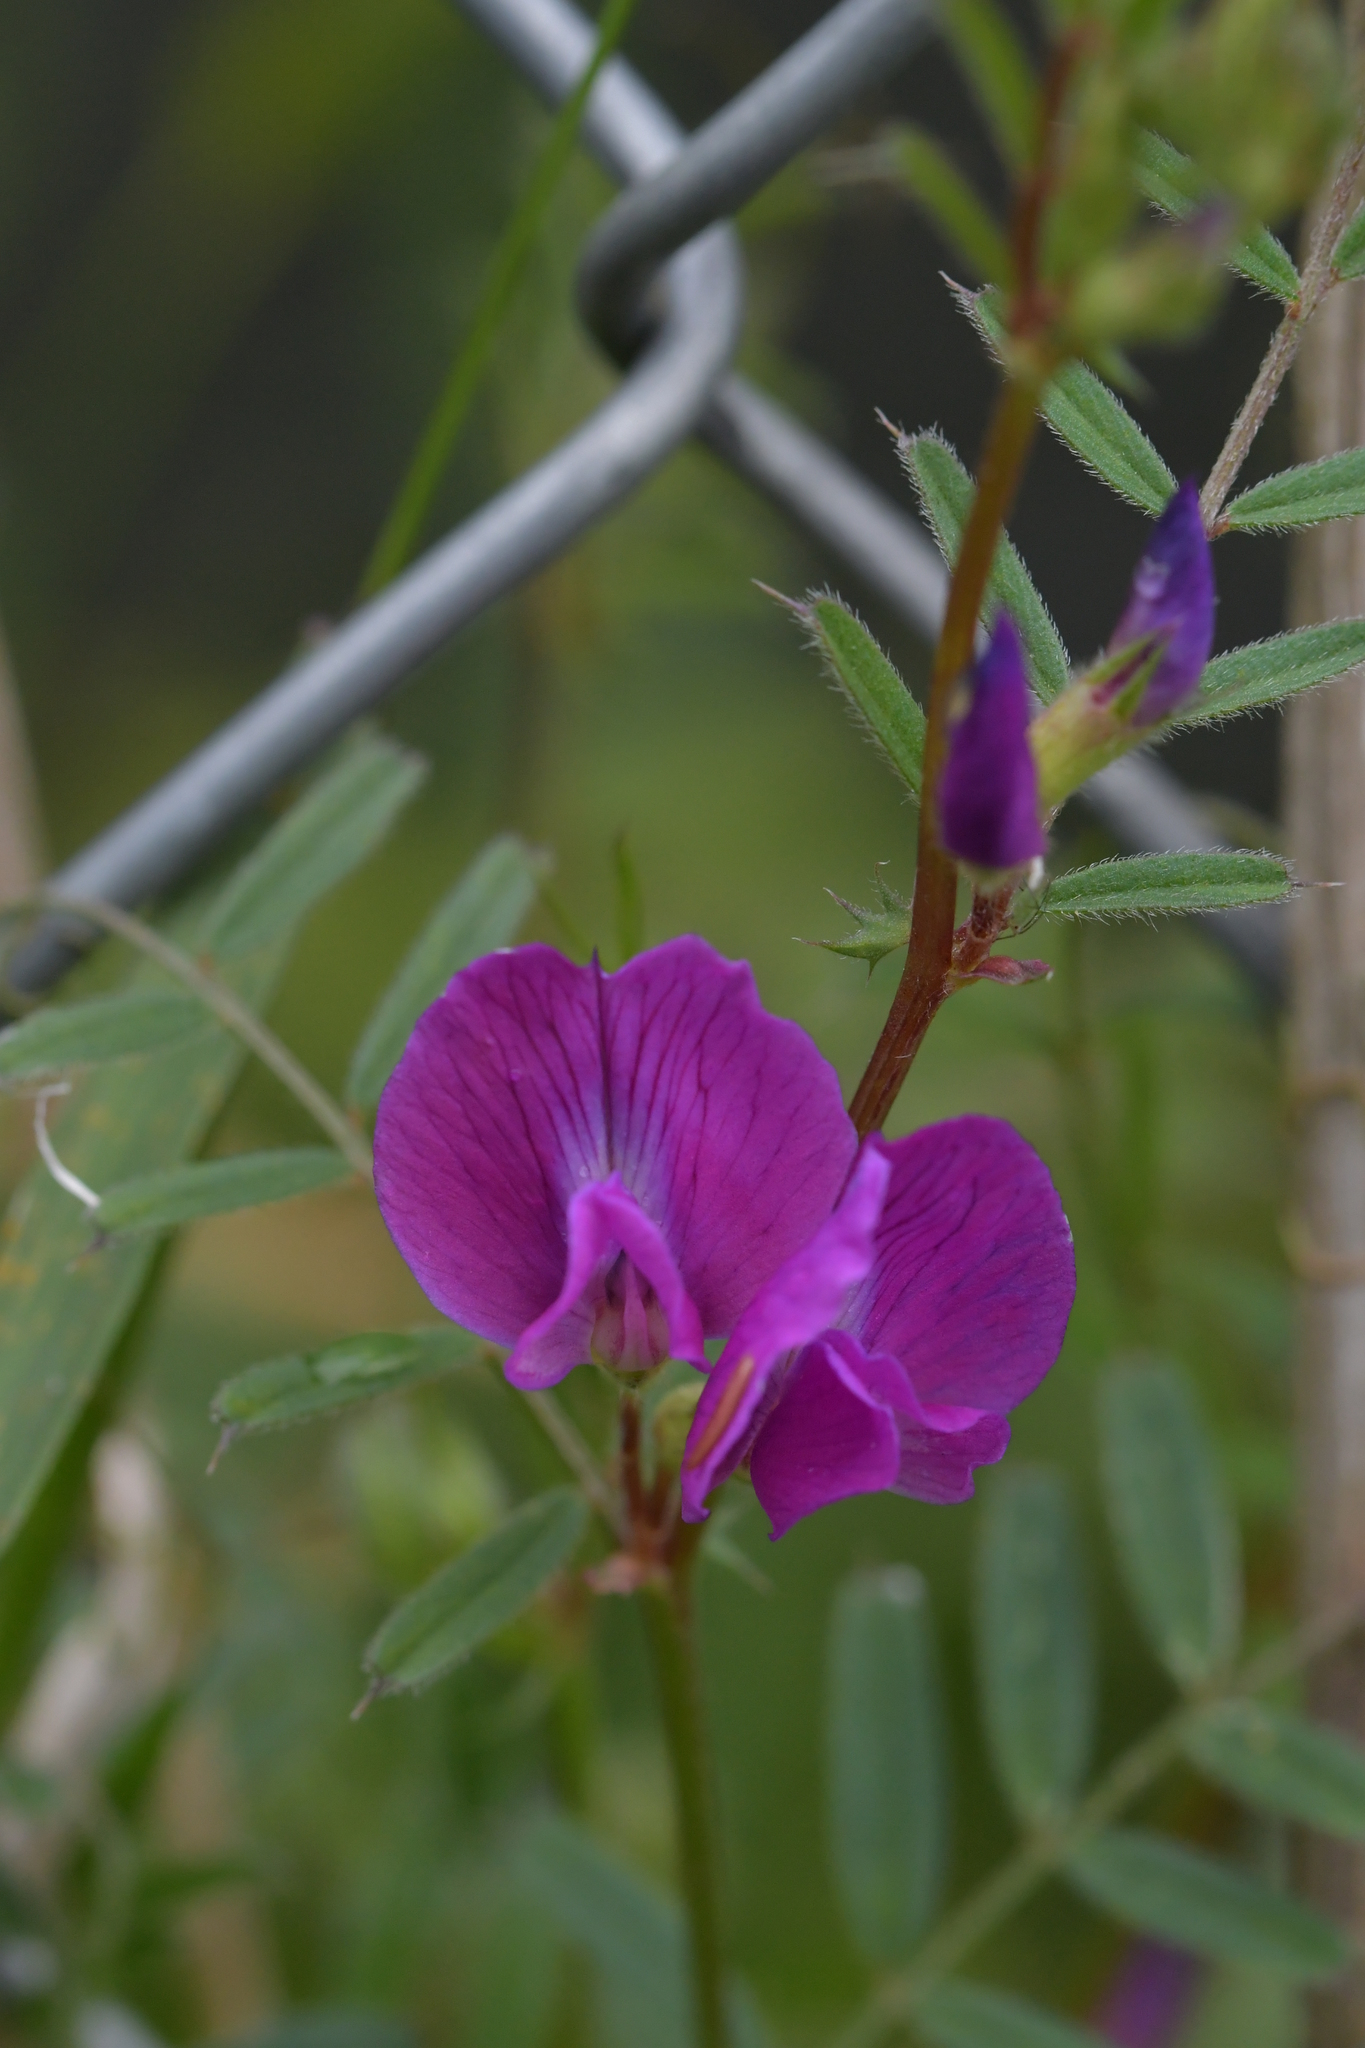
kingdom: Plantae
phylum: Tracheophyta
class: Magnoliopsida
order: Fabales
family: Fabaceae
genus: Vicia
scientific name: Vicia sativa
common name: Garden vetch
